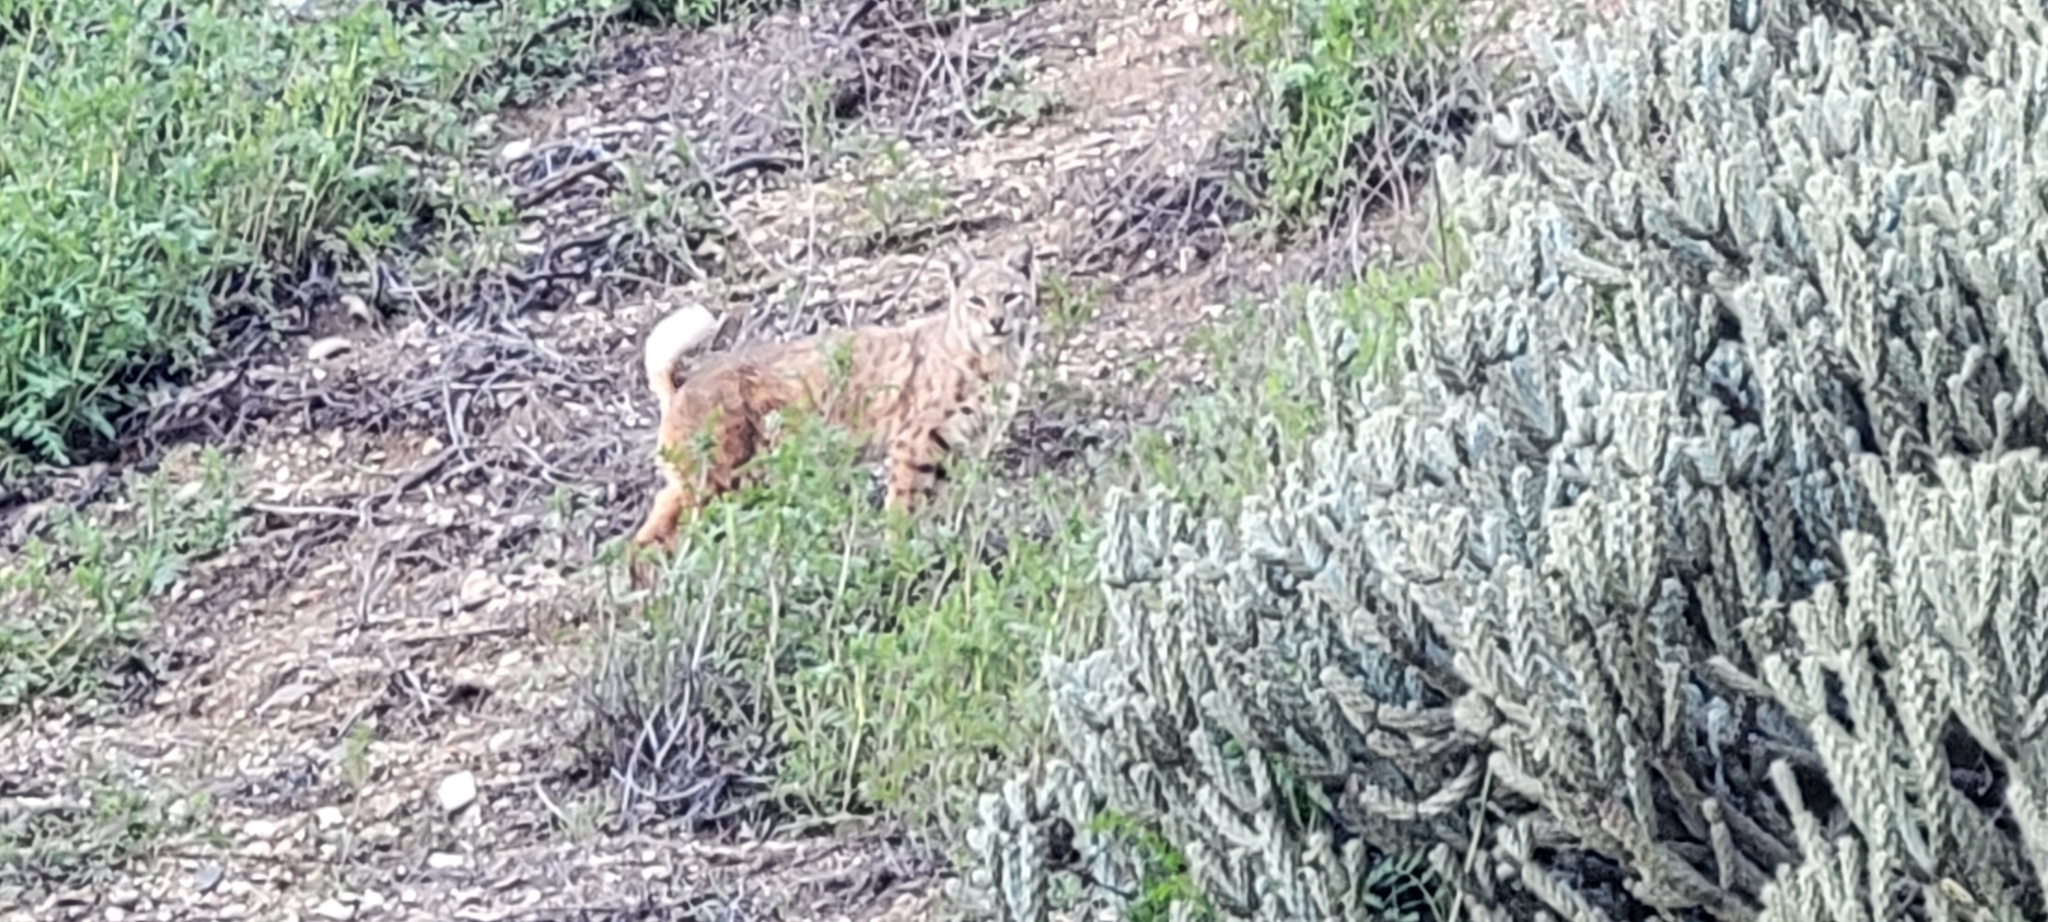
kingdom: Animalia
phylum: Chordata
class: Mammalia
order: Carnivora
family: Felidae
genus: Lynx
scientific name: Lynx rufus
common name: Bobcat
